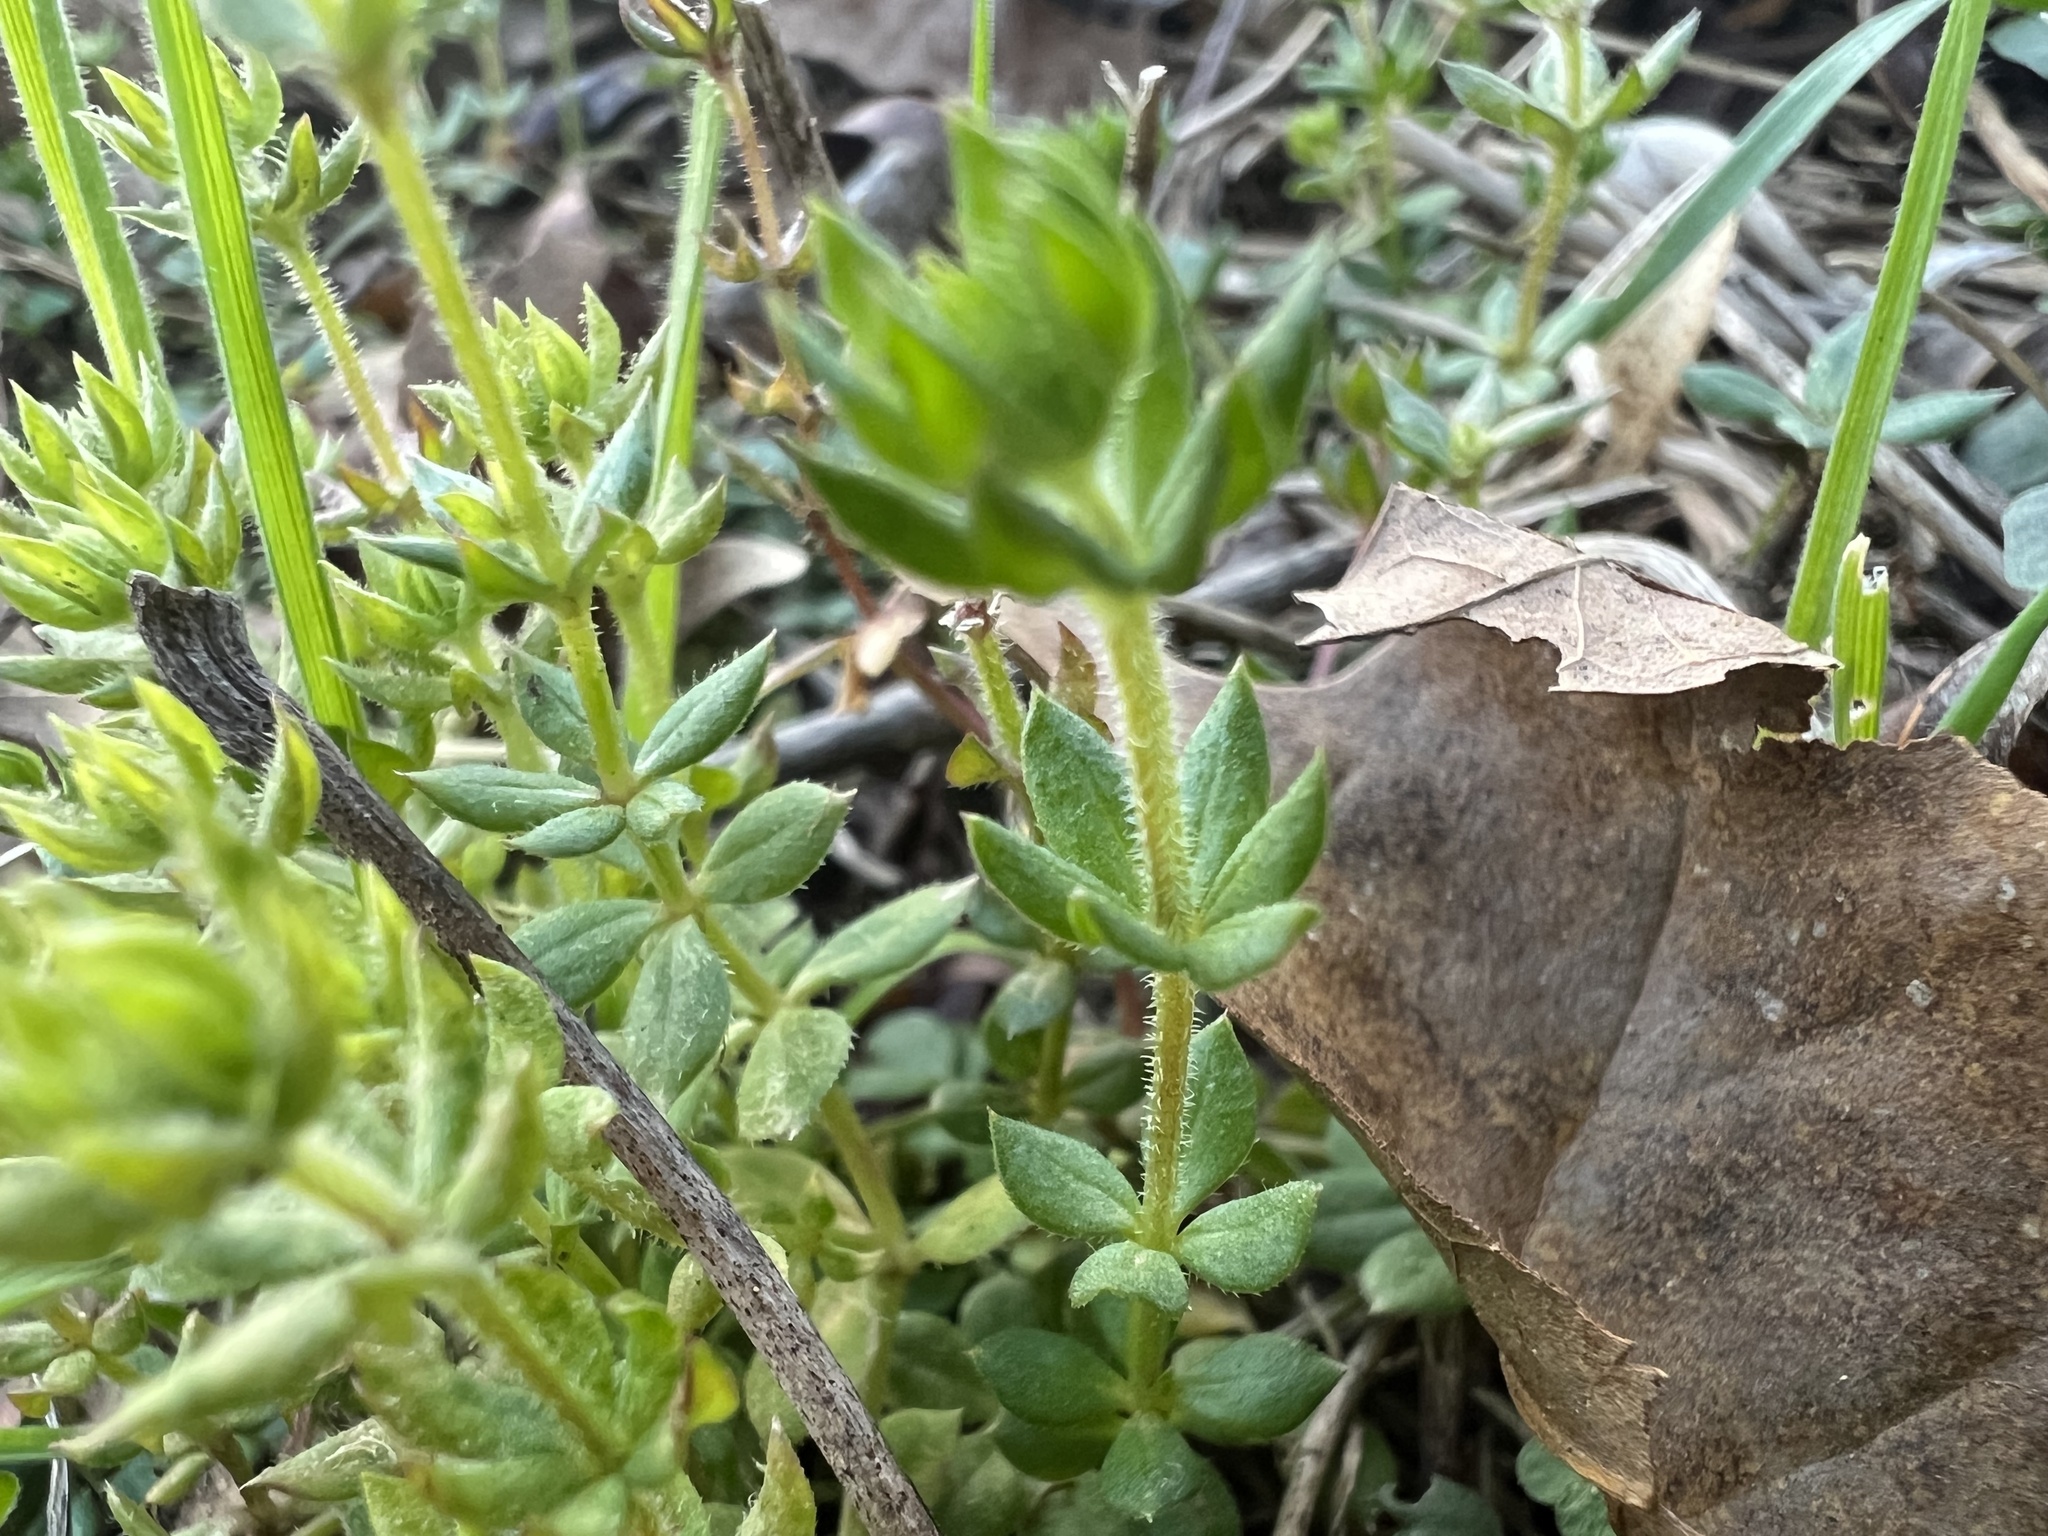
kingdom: Plantae
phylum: Tracheophyta
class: Magnoliopsida
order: Gentianales
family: Rubiaceae
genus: Sherardia
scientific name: Sherardia arvensis
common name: Field madder
